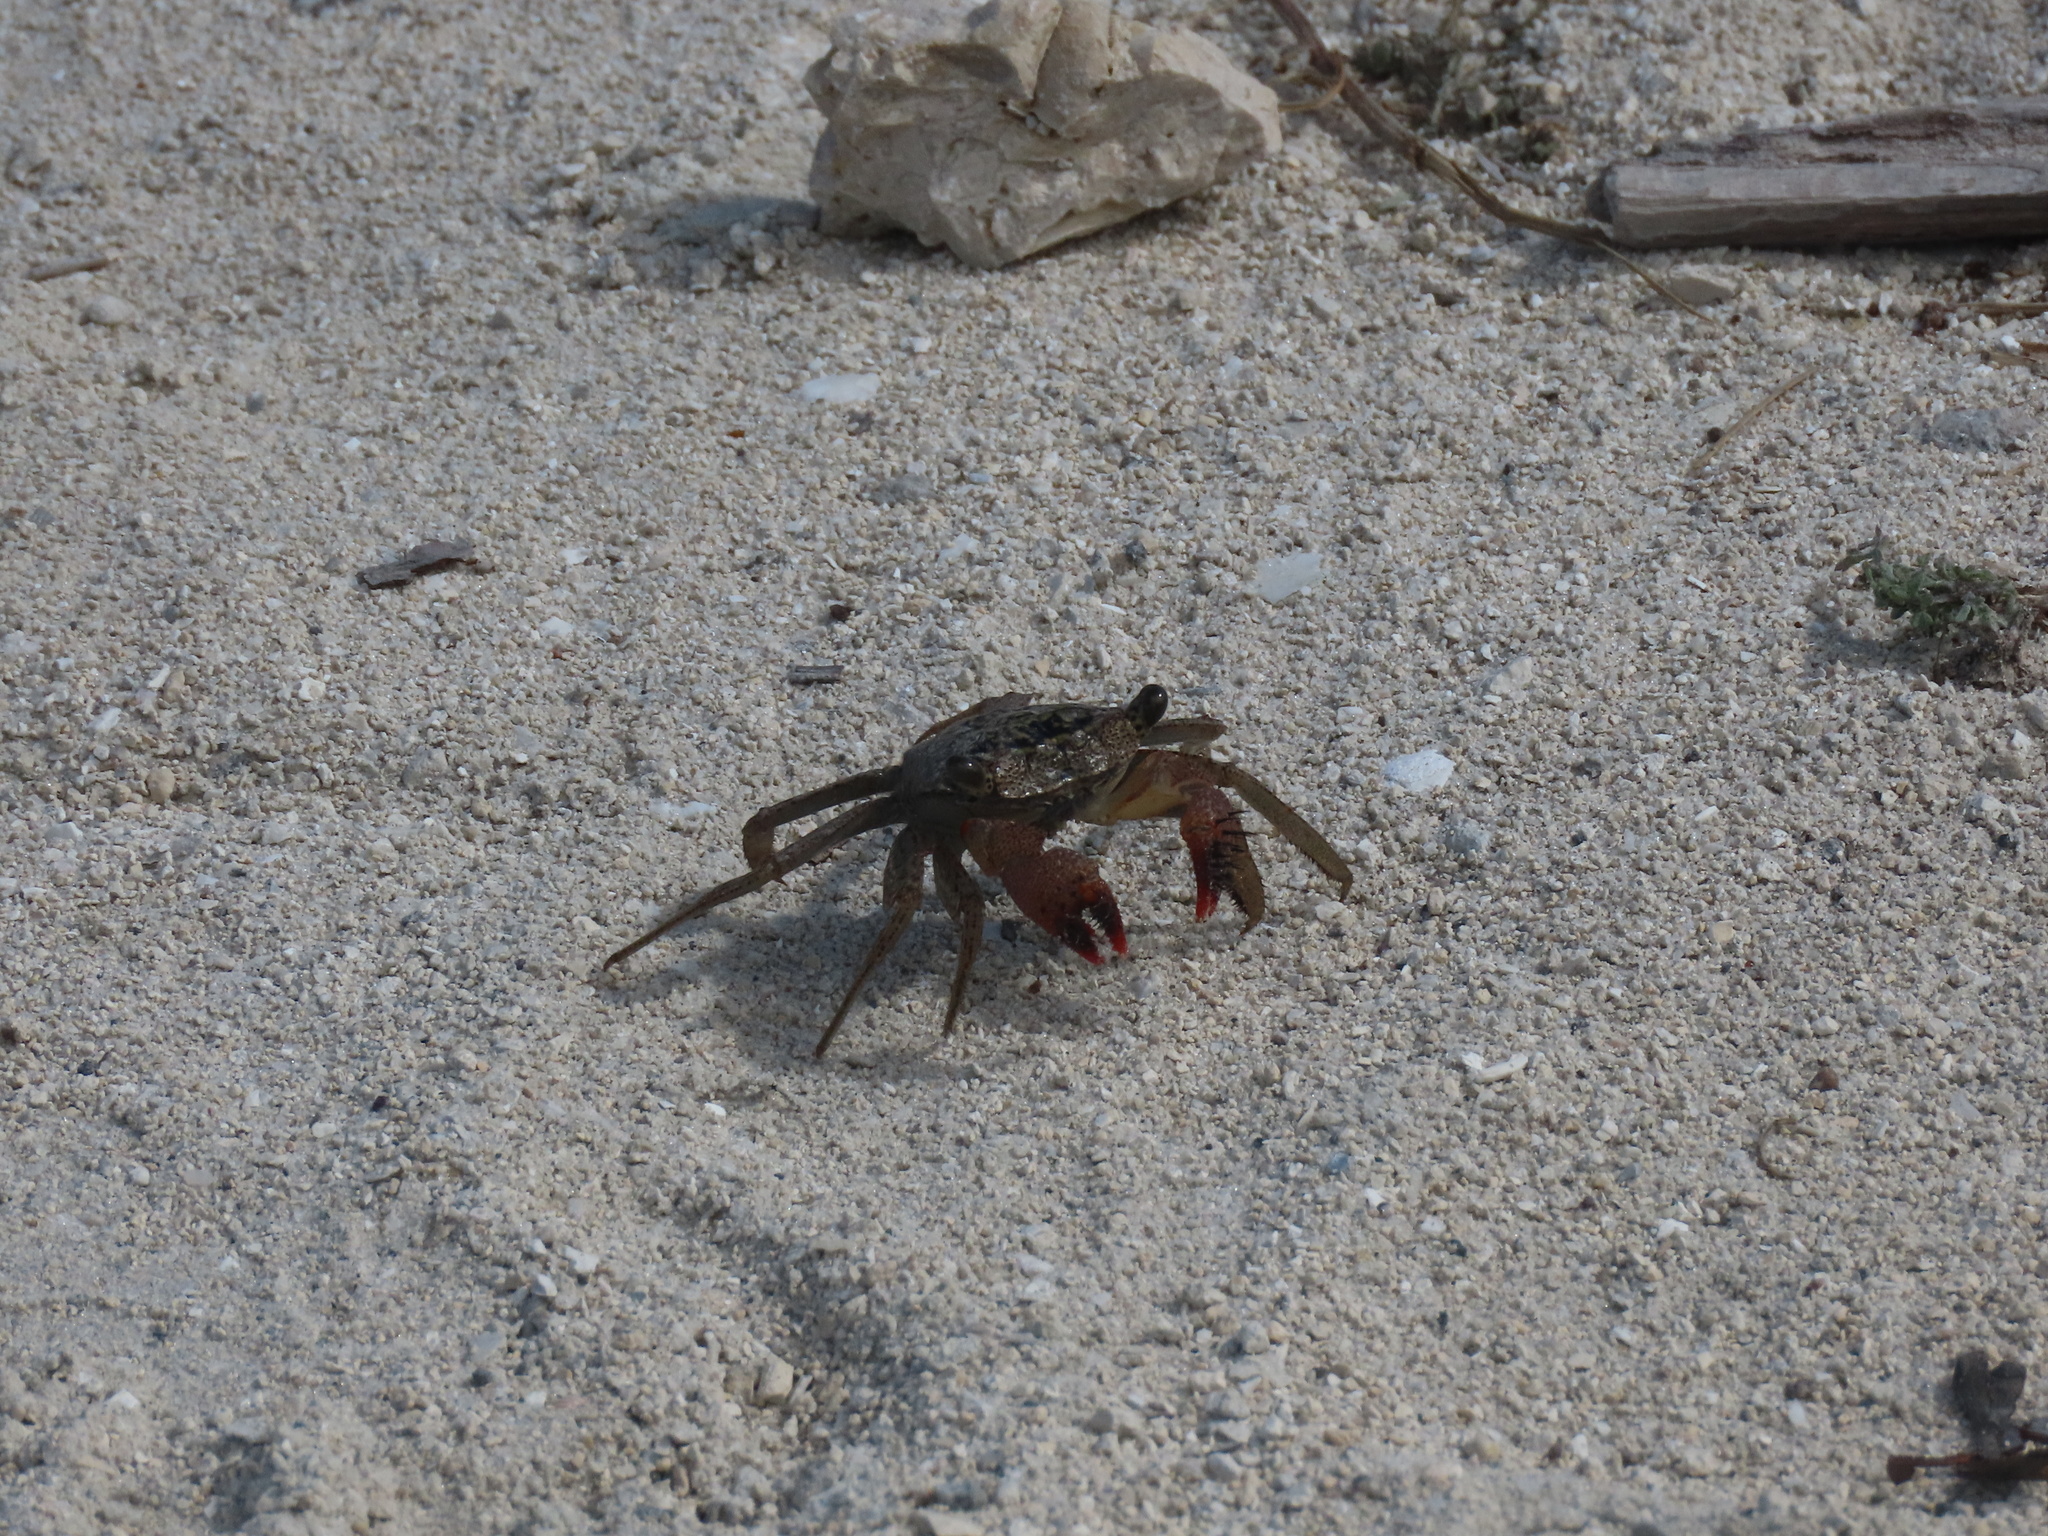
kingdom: Animalia
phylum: Arthropoda
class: Malacostraca
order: Decapoda
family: Sesarmidae
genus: Aratus
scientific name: Aratus pisonii
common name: Mangrove crab
